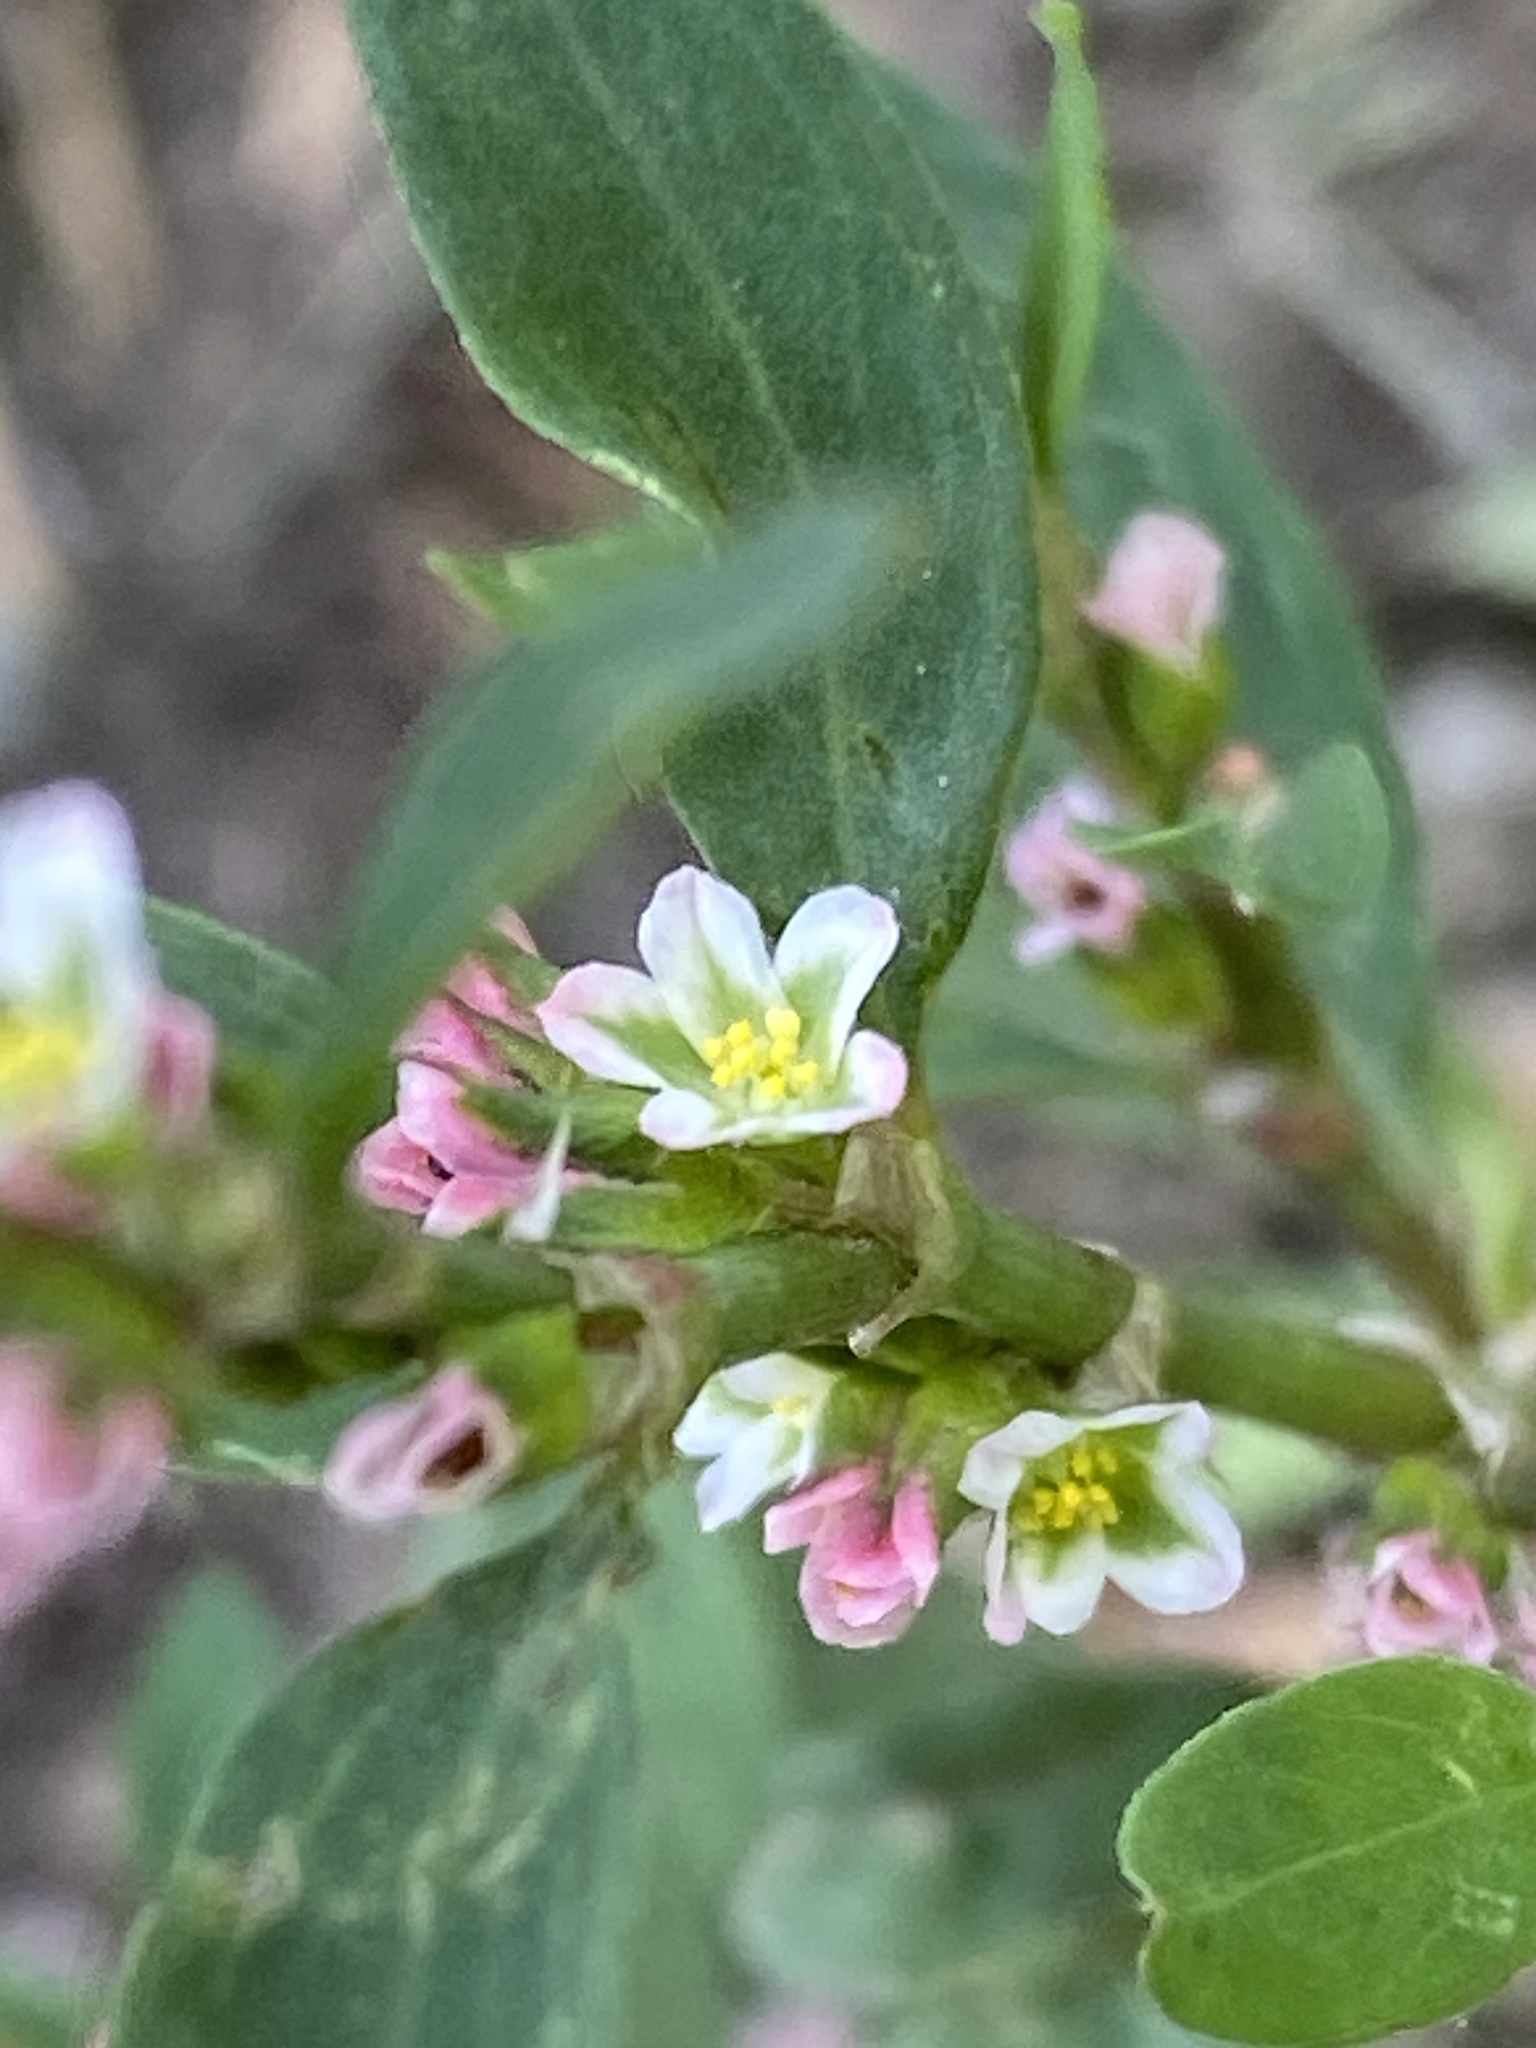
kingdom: Plantae
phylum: Tracheophyta
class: Magnoliopsida
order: Caryophyllales
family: Polygonaceae
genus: Polygonum
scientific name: Polygonum
